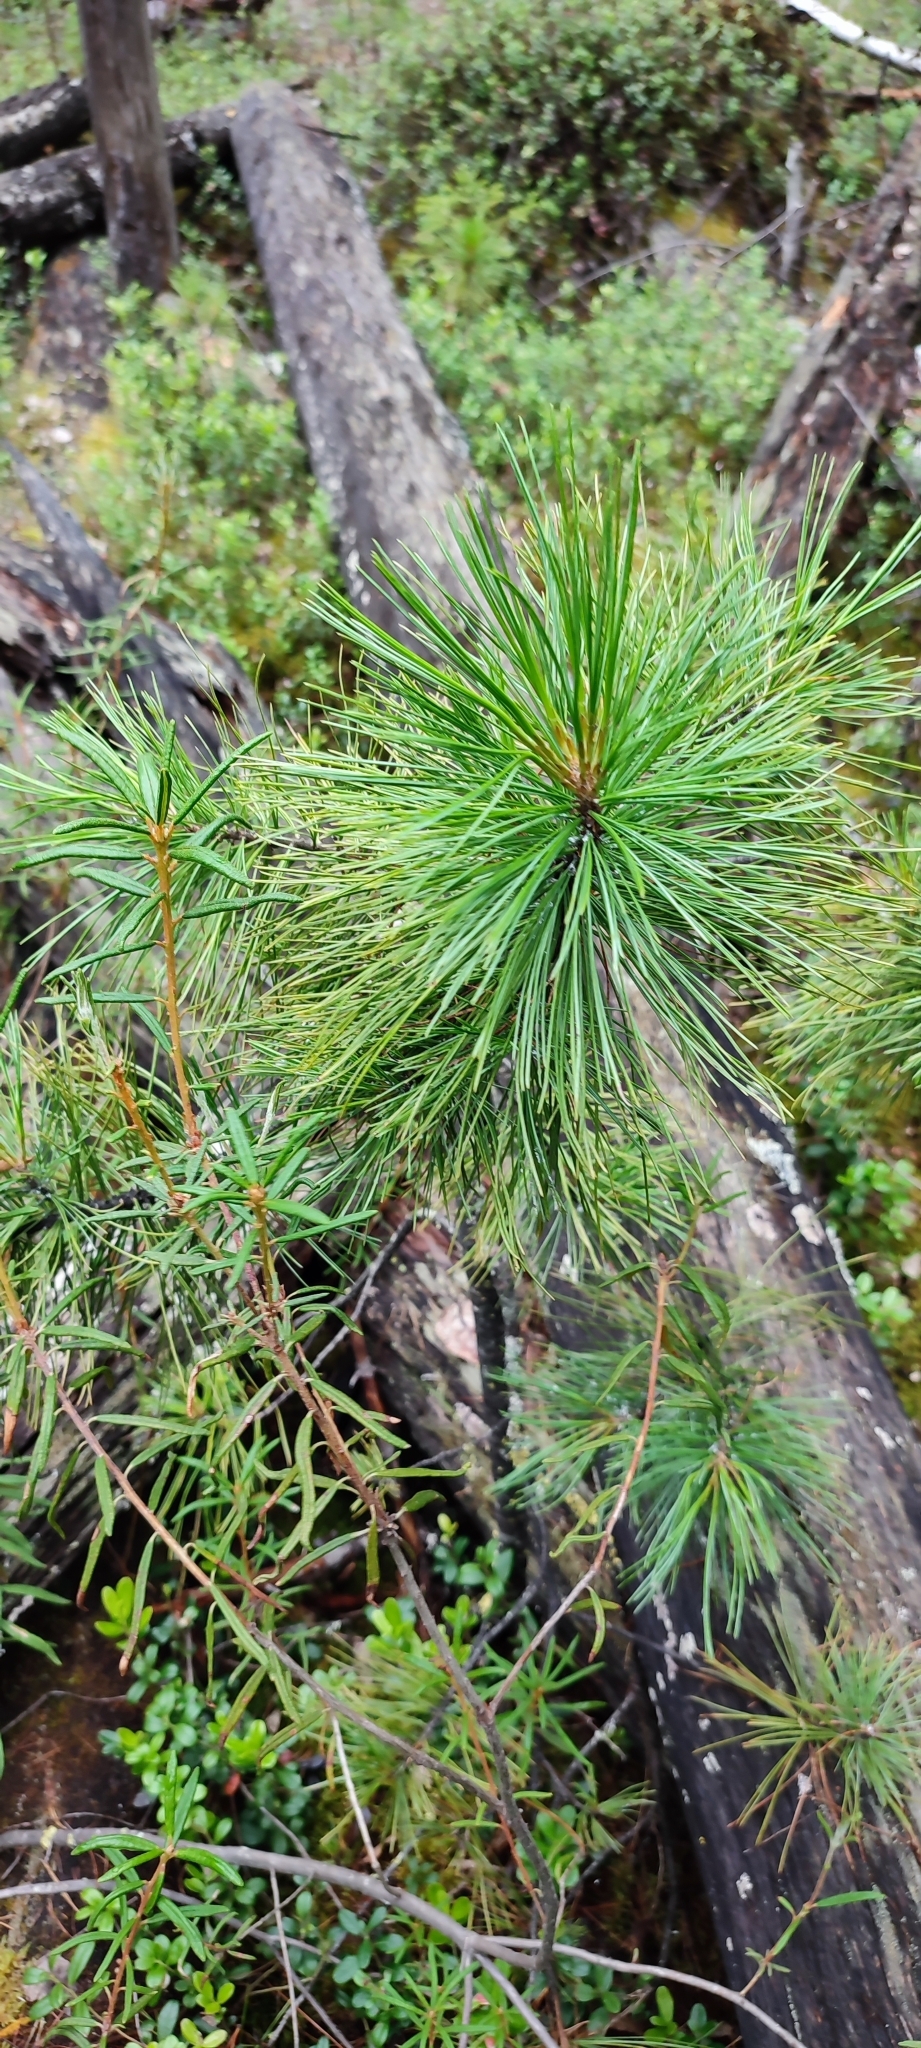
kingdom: Plantae
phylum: Tracheophyta
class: Pinopsida
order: Pinales
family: Pinaceae
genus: Pinus
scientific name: Pinus sibirica
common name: Siberian pine
